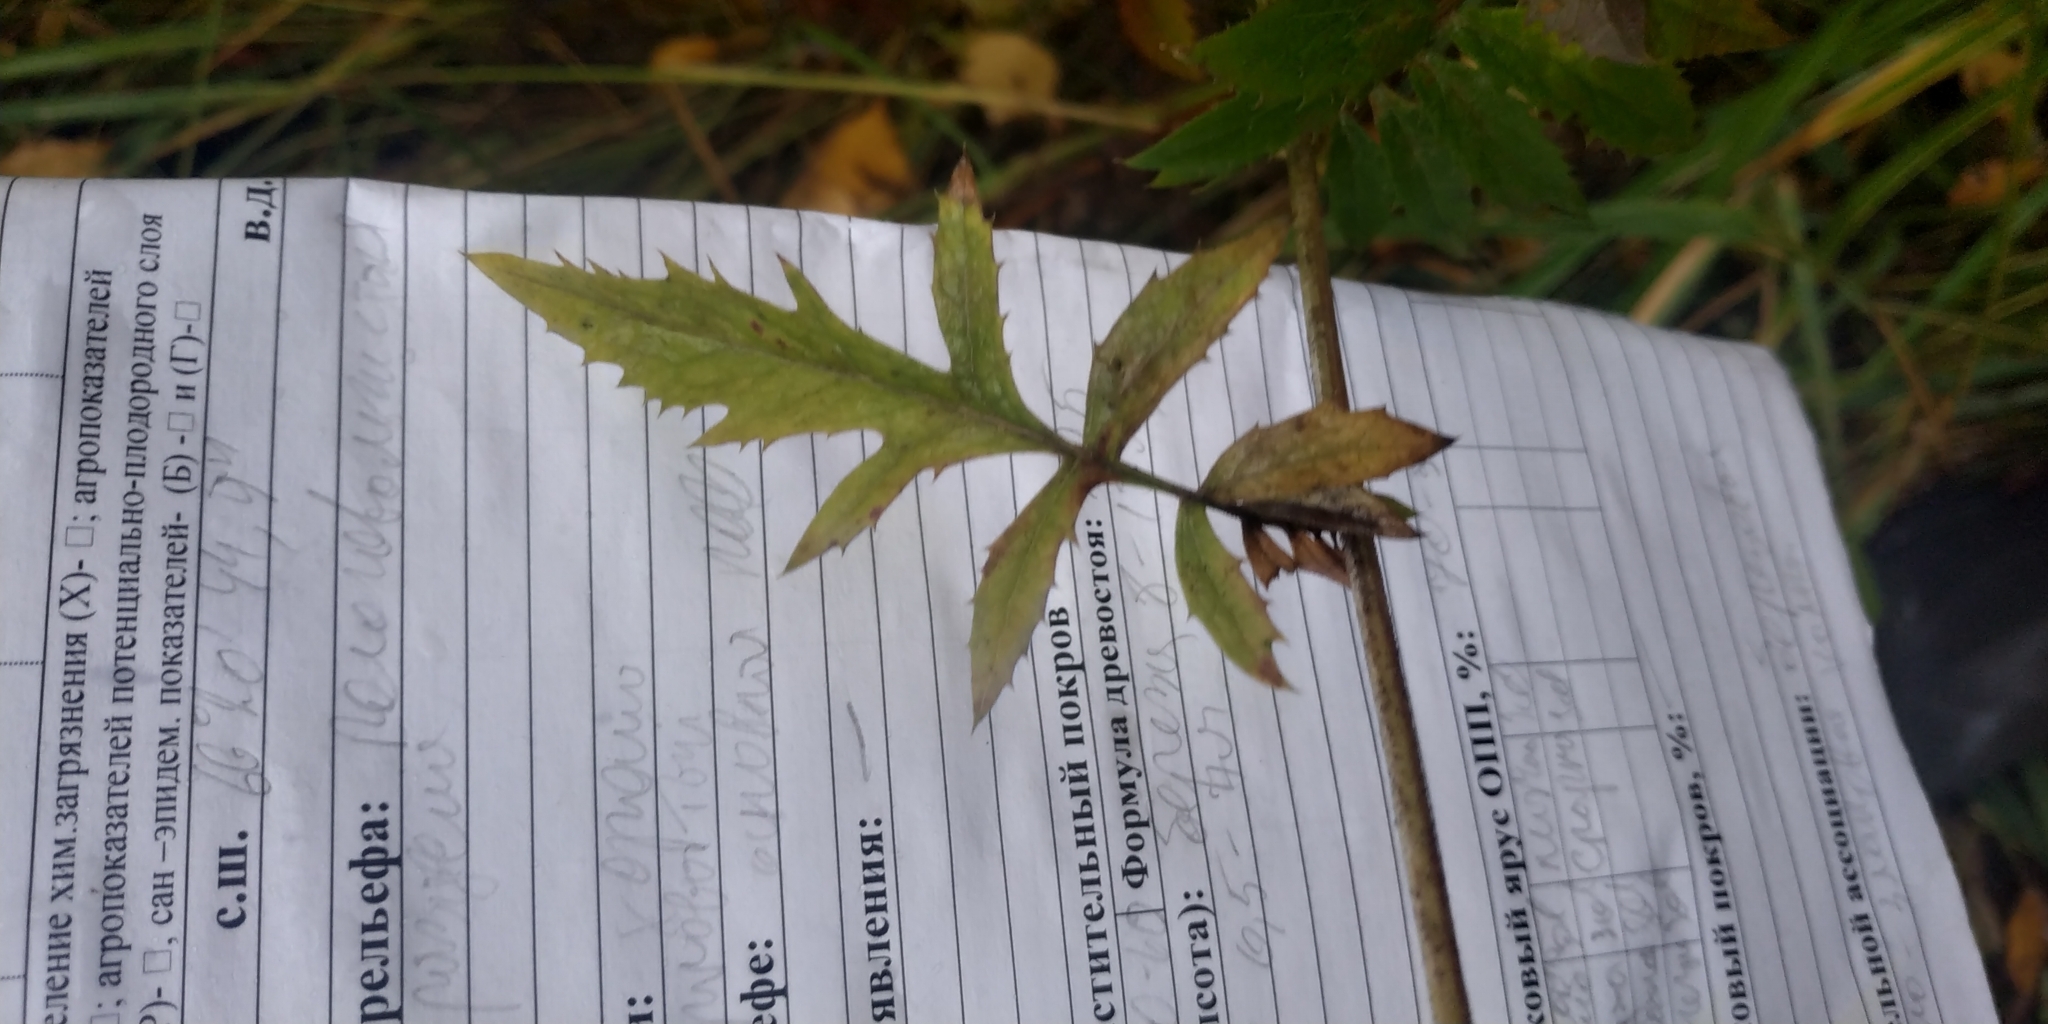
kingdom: Plantae
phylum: Tracheophyta
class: Magnoliopsida
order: Asterales
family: Asteraceae
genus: Serratula
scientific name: Serratula coronata
